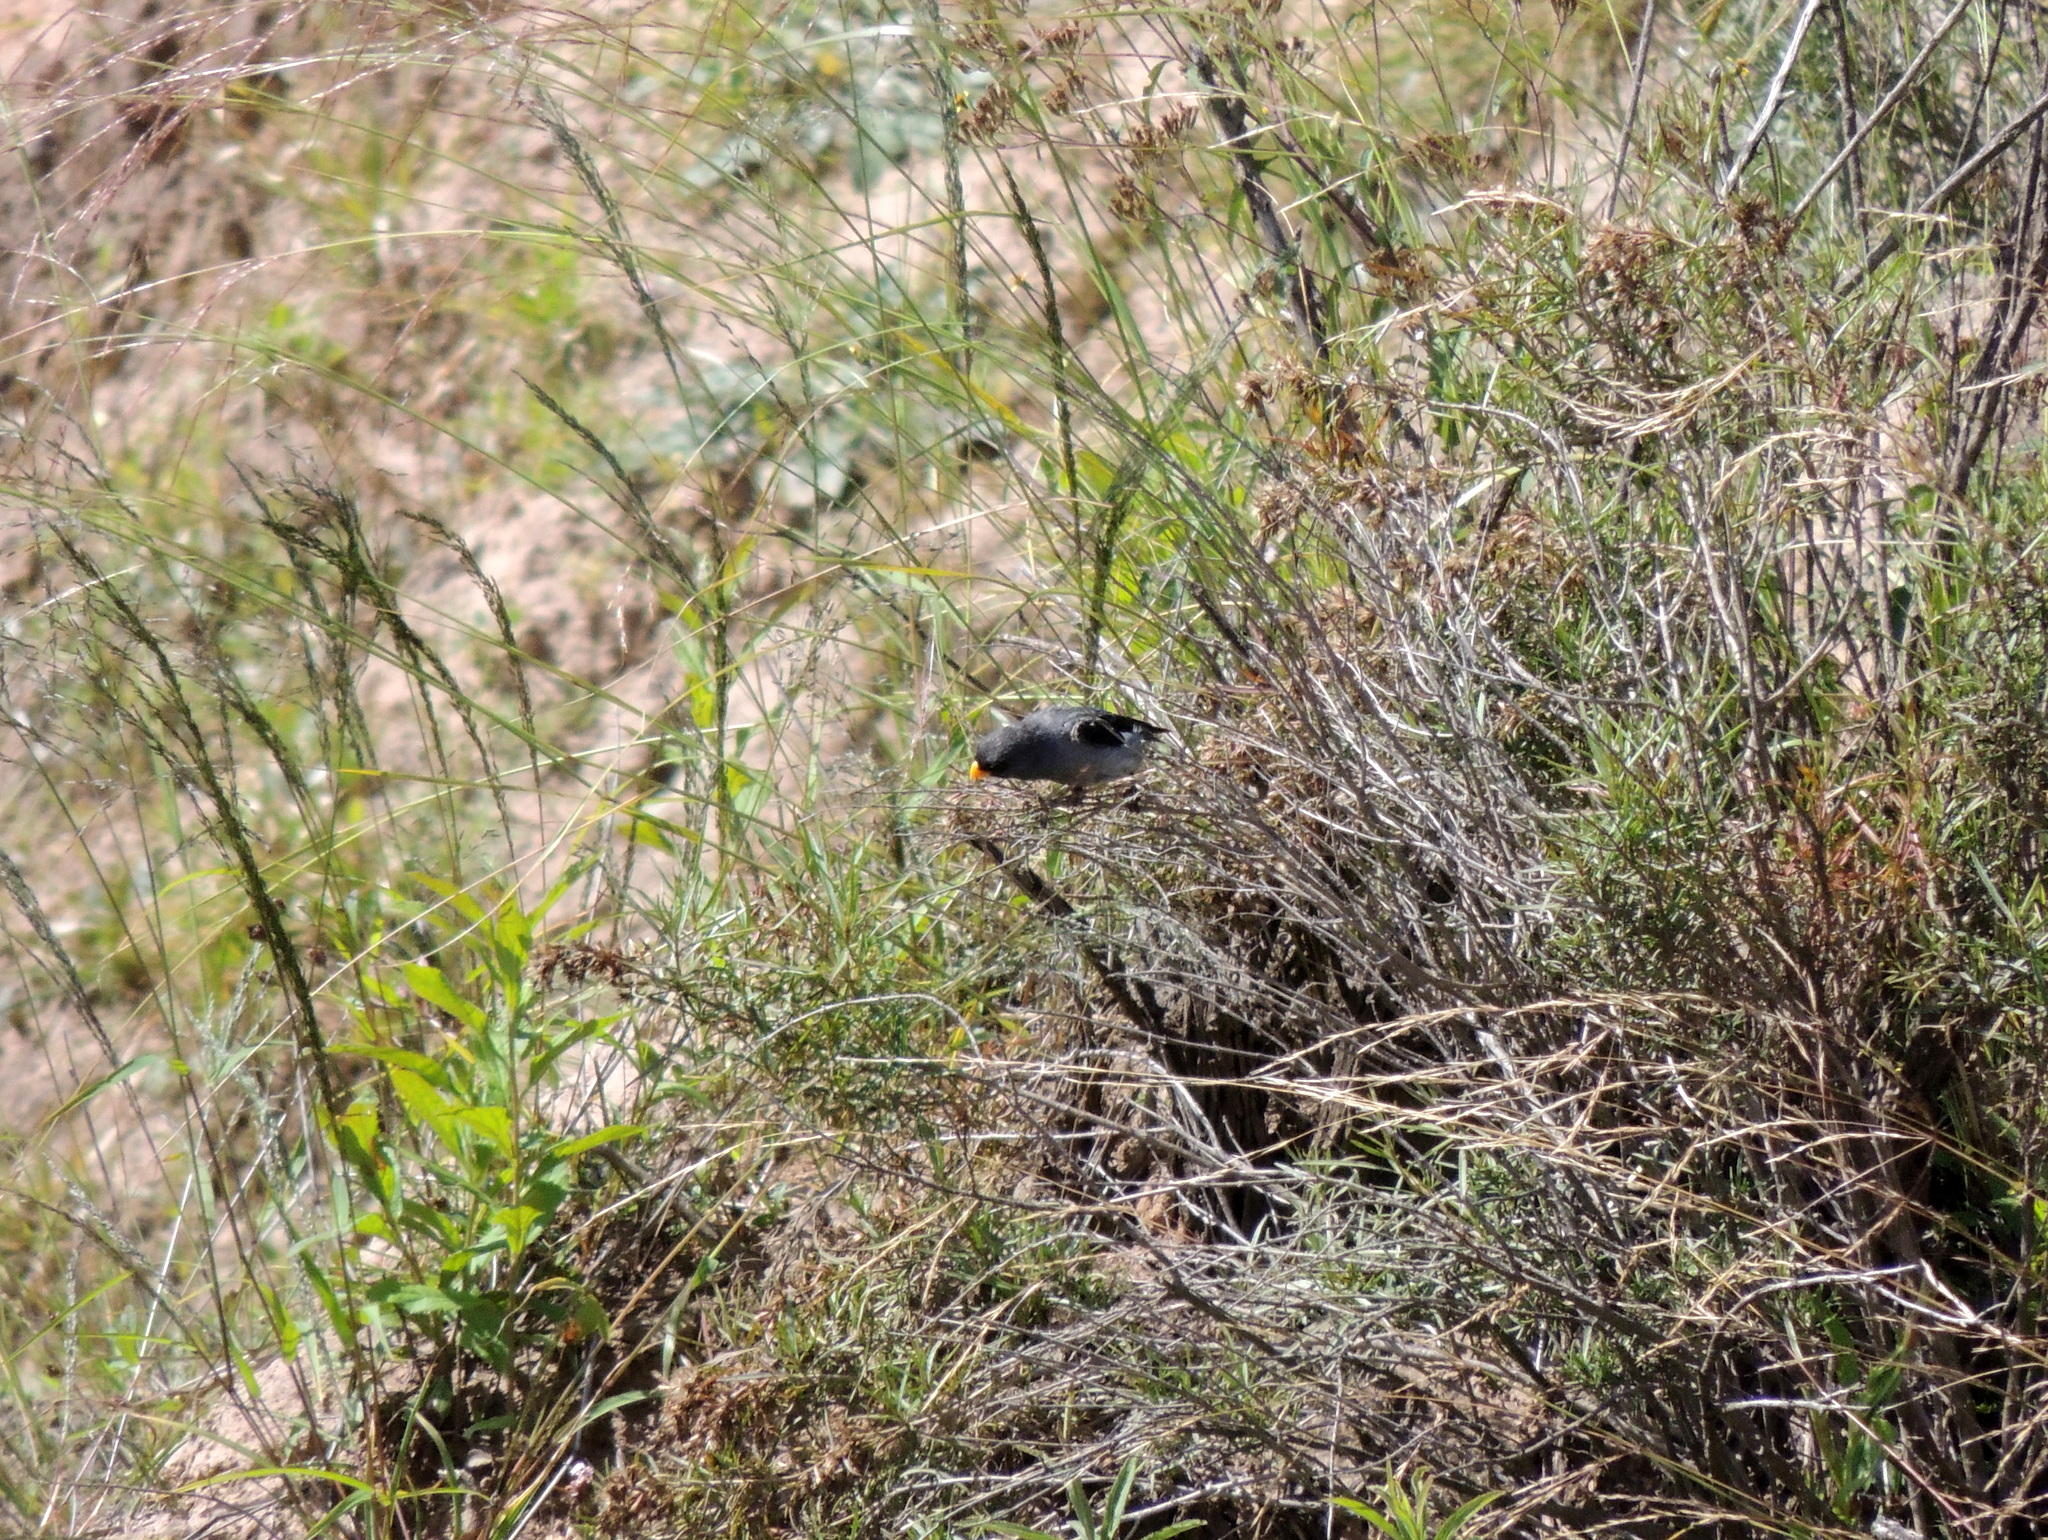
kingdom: Animalia
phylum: Chordata
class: Aves
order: Passeriformes
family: Thraupidae
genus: Catamenia
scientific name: Catamenia analis
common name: Band-tailed seedeater
